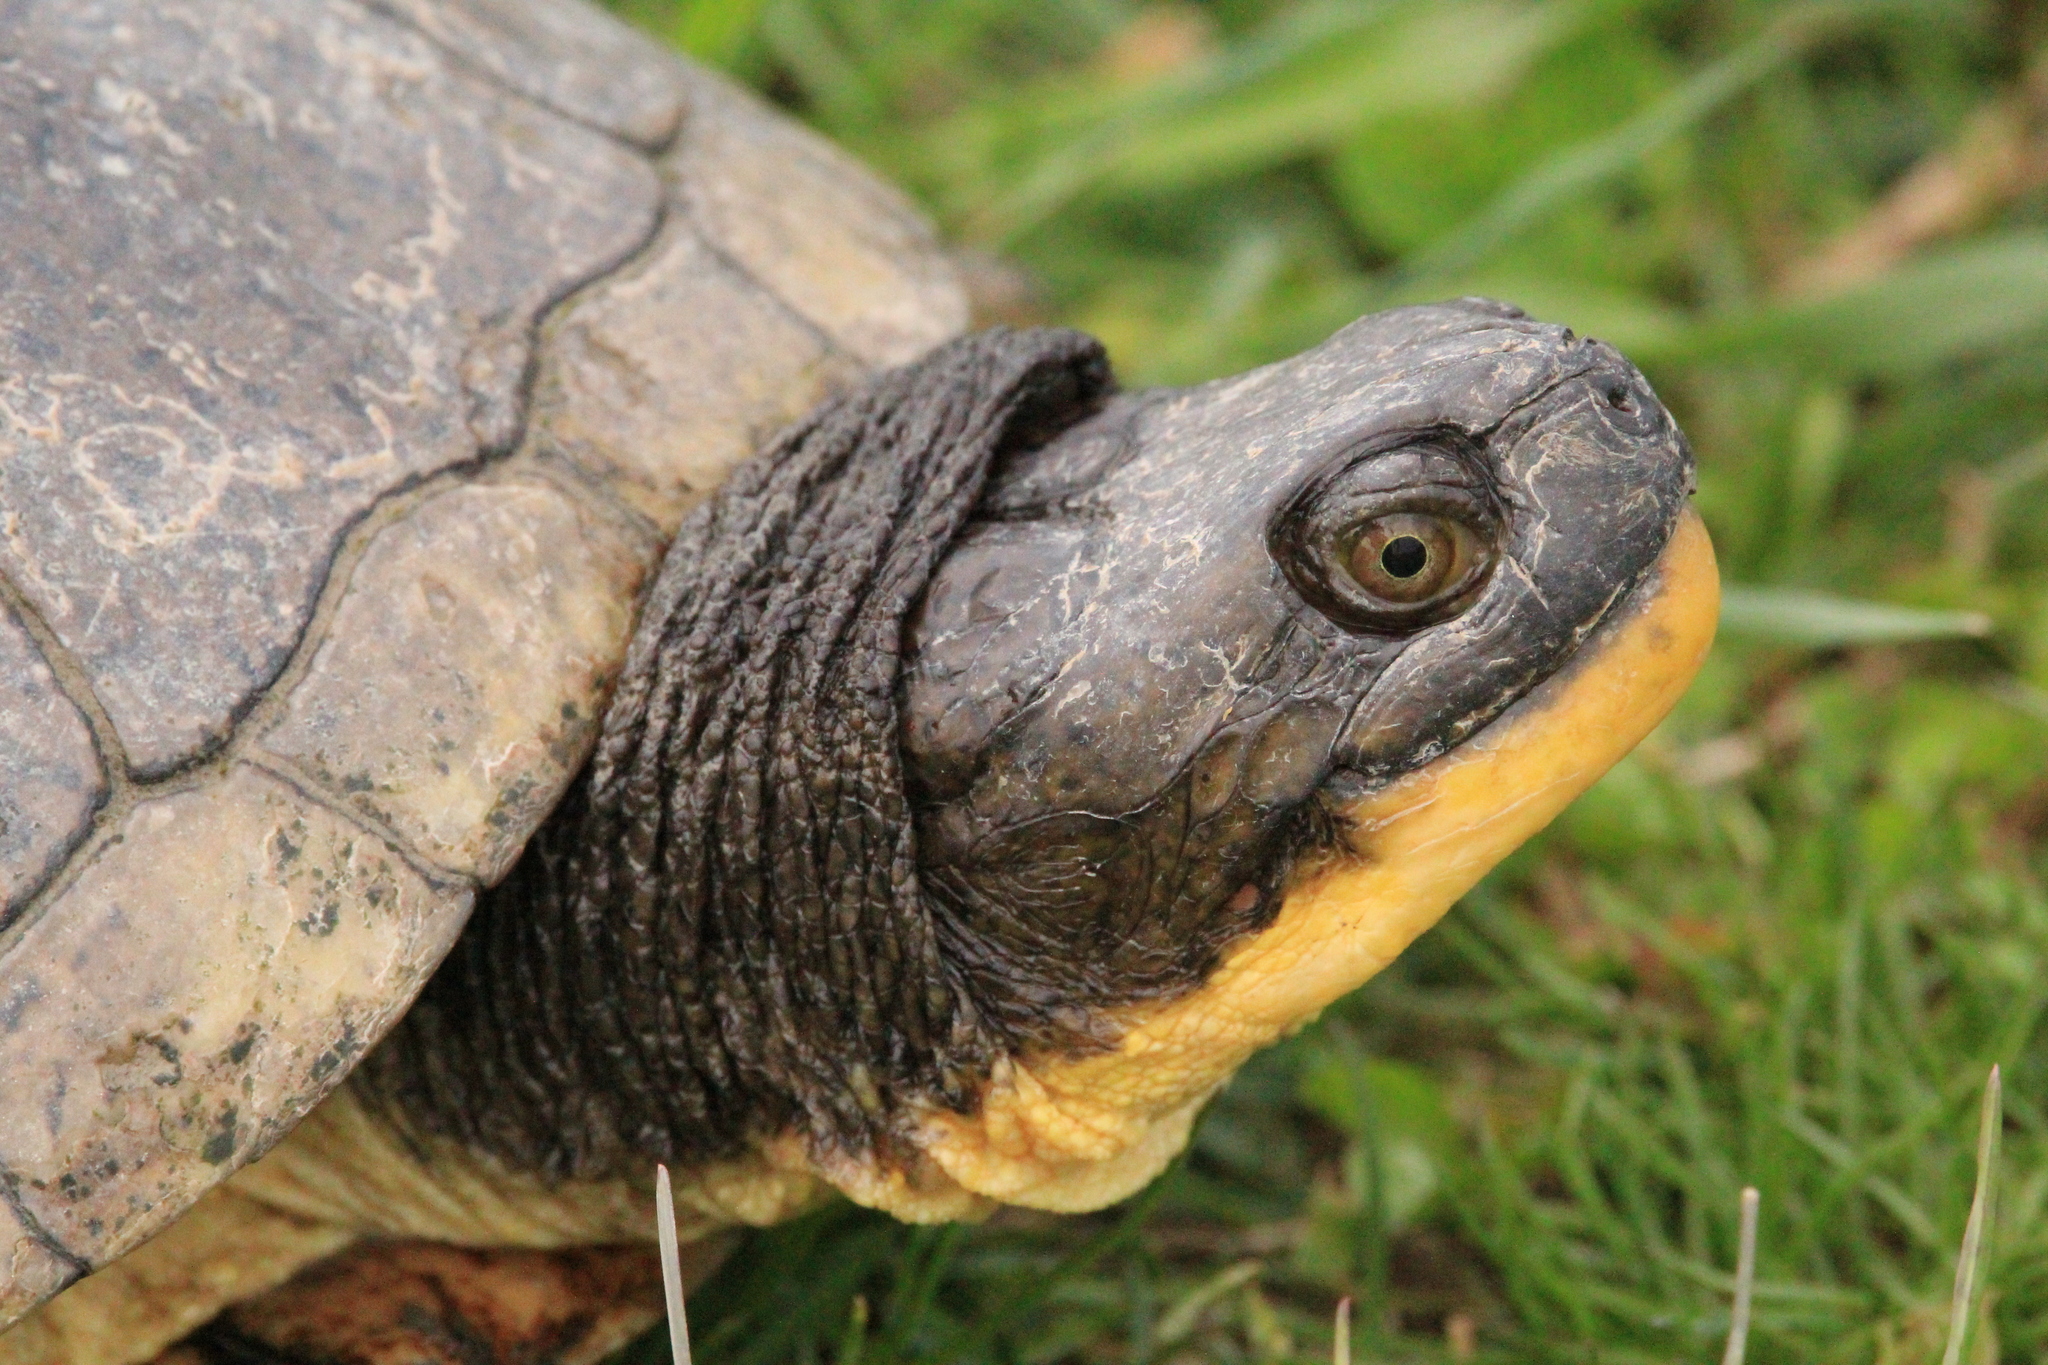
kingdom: Animalia
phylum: Chordata
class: Testudines
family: Emydidae
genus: Emys
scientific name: Emys blandingii
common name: Blanding's turtle
